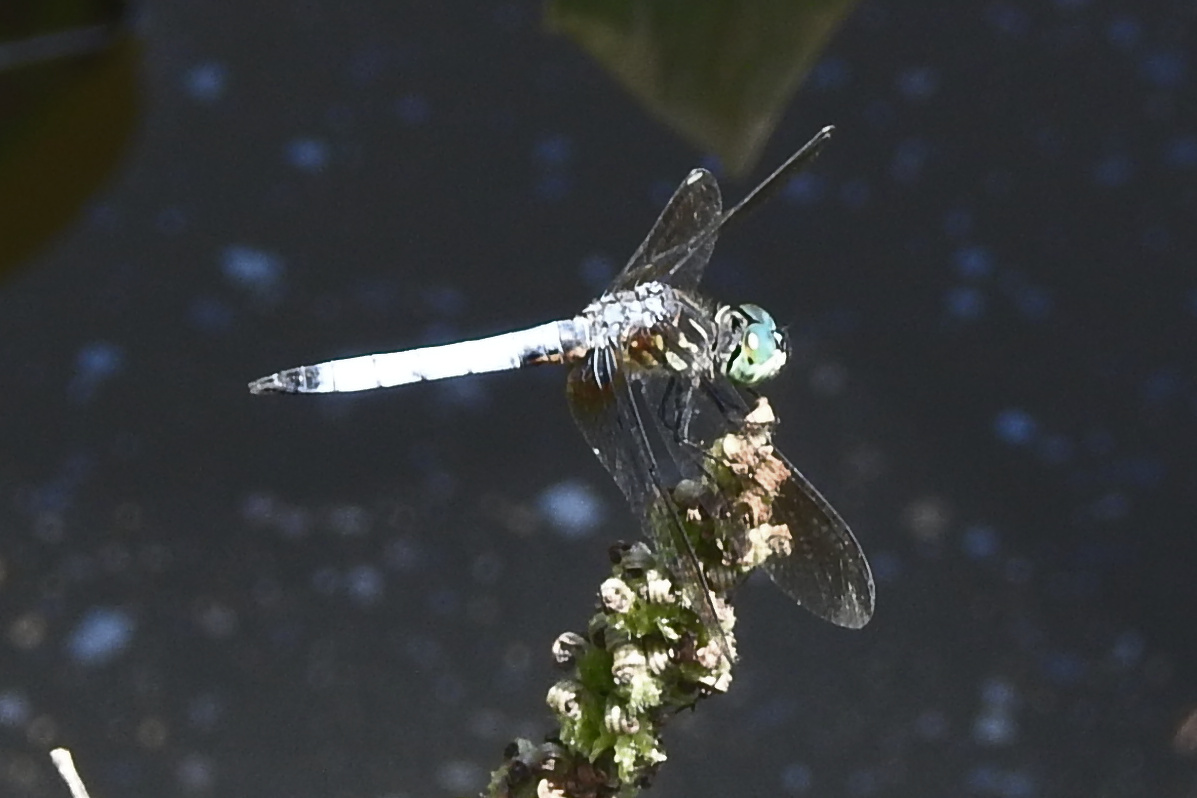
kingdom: Animalia
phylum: Arthropoda
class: Insecta
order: Odonata
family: Libellulidae
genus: Pachydiplax
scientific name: Pachydiplax longipennis
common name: Blue dasher
